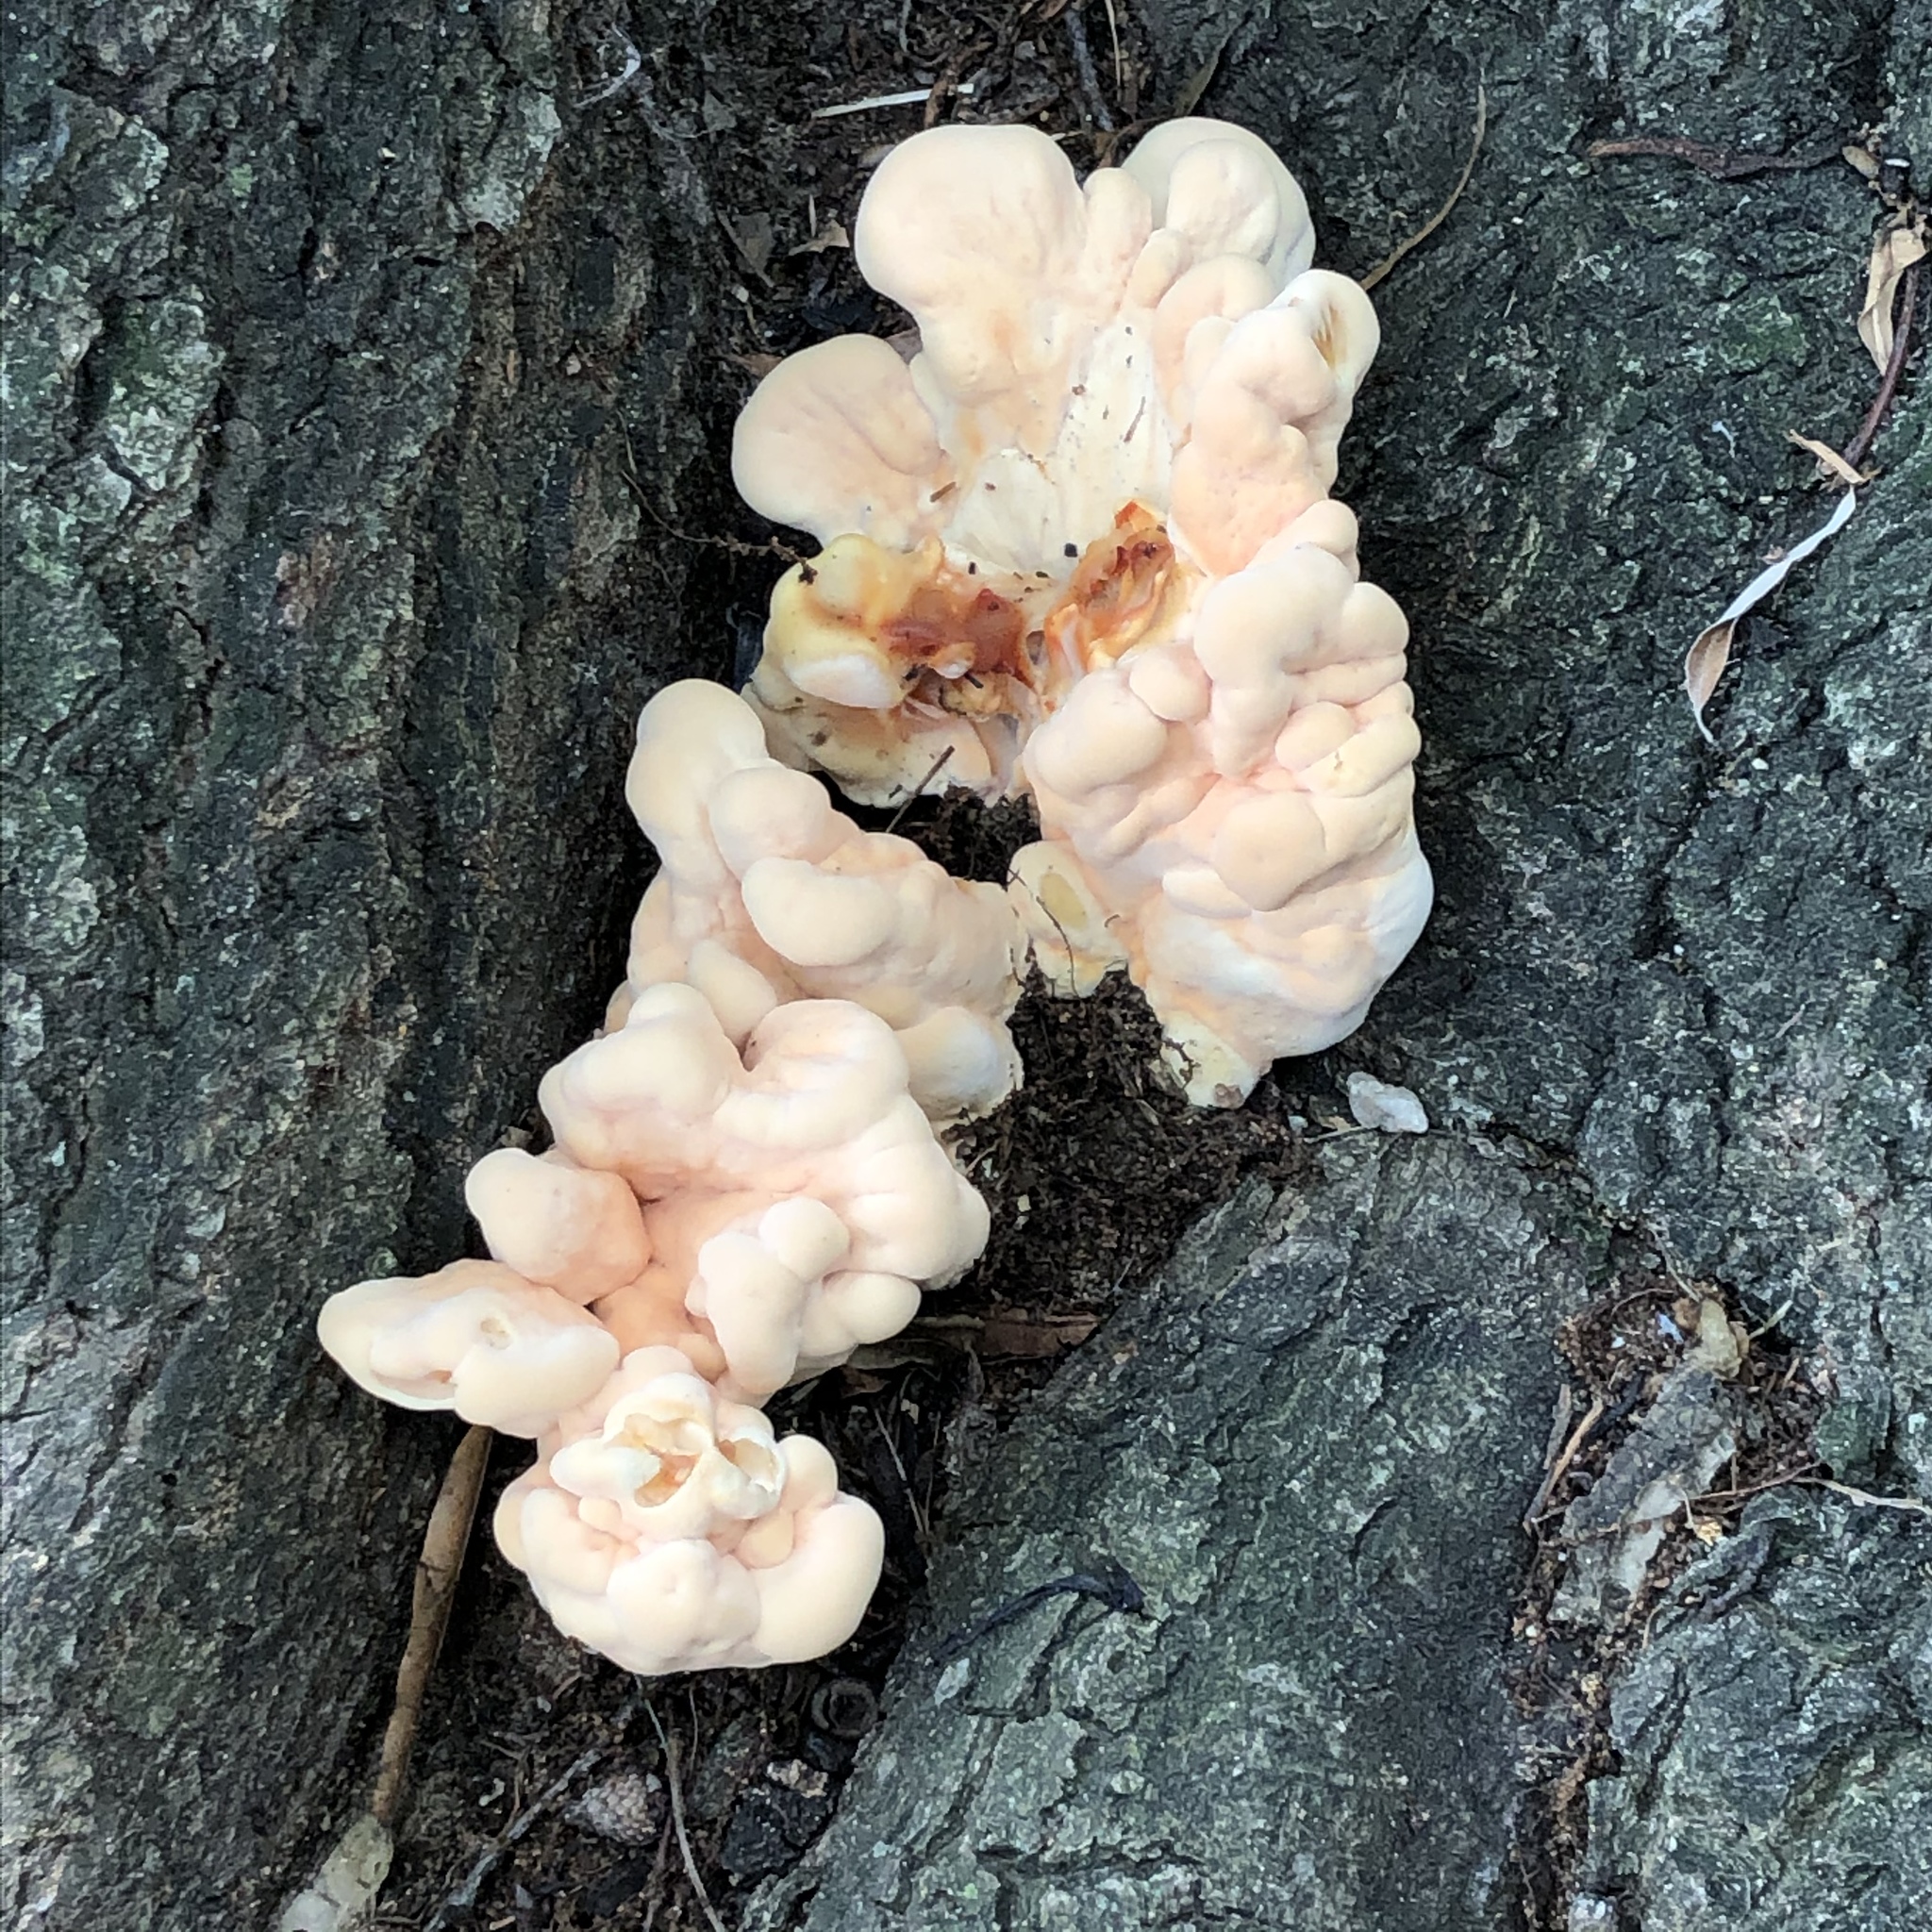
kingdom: Fungi
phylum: Basidiomycota
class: Agaricomycetes
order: Polyporales
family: Laetiporaceae
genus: Laetiporus
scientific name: Laetiporus sulphureus
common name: Chicken of the woods
